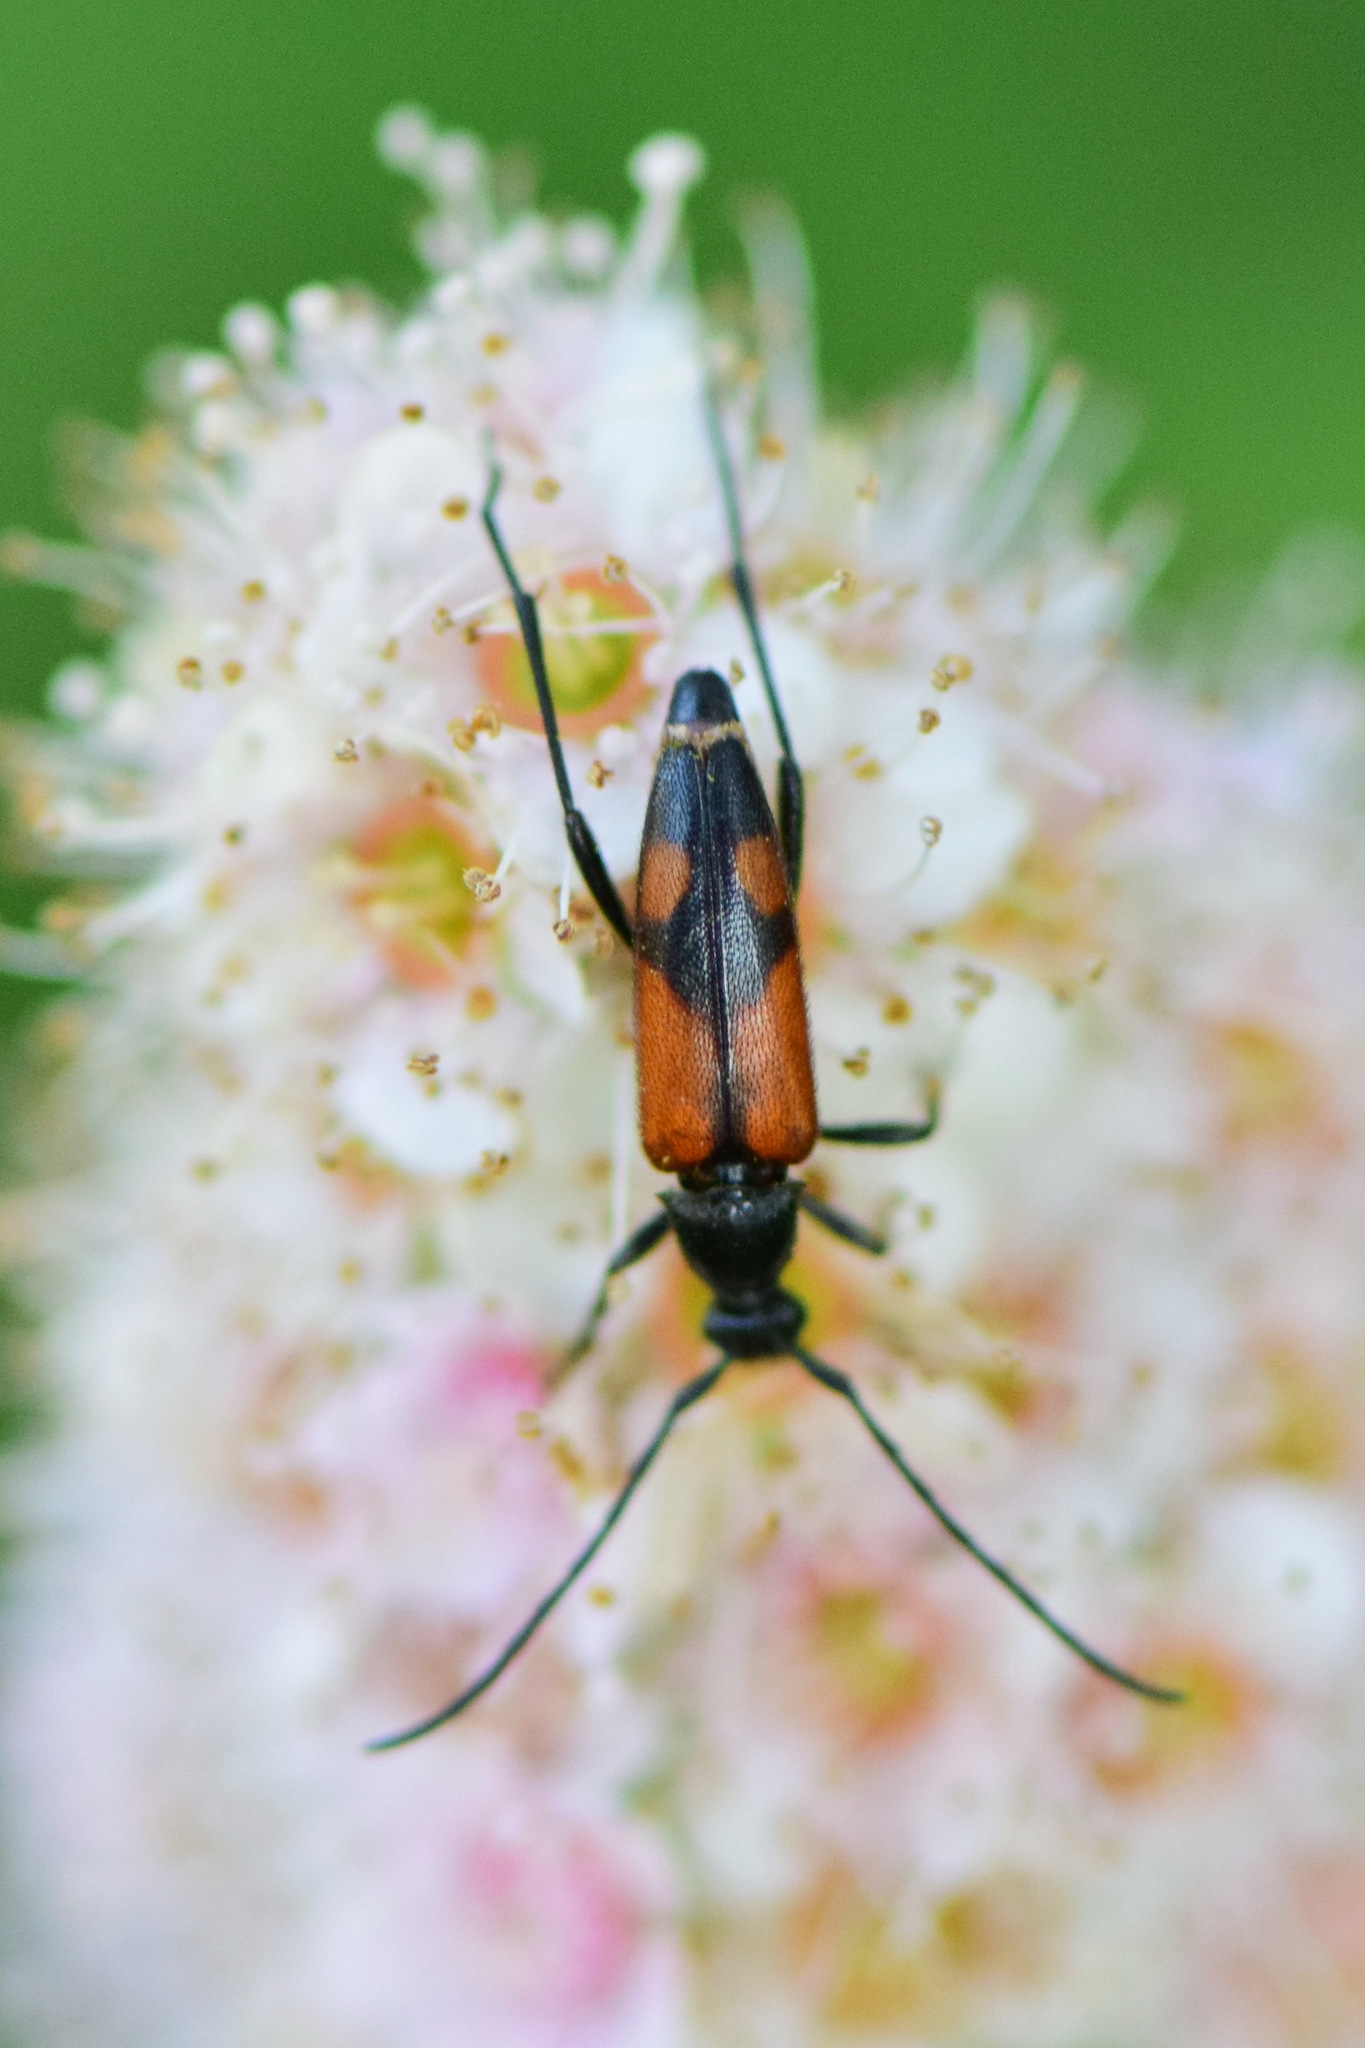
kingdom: Animalia
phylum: Arthropoda
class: Insecta
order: Coleoptera
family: Cerambycidae
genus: Stenurella
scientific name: Stenurella bifasciata
